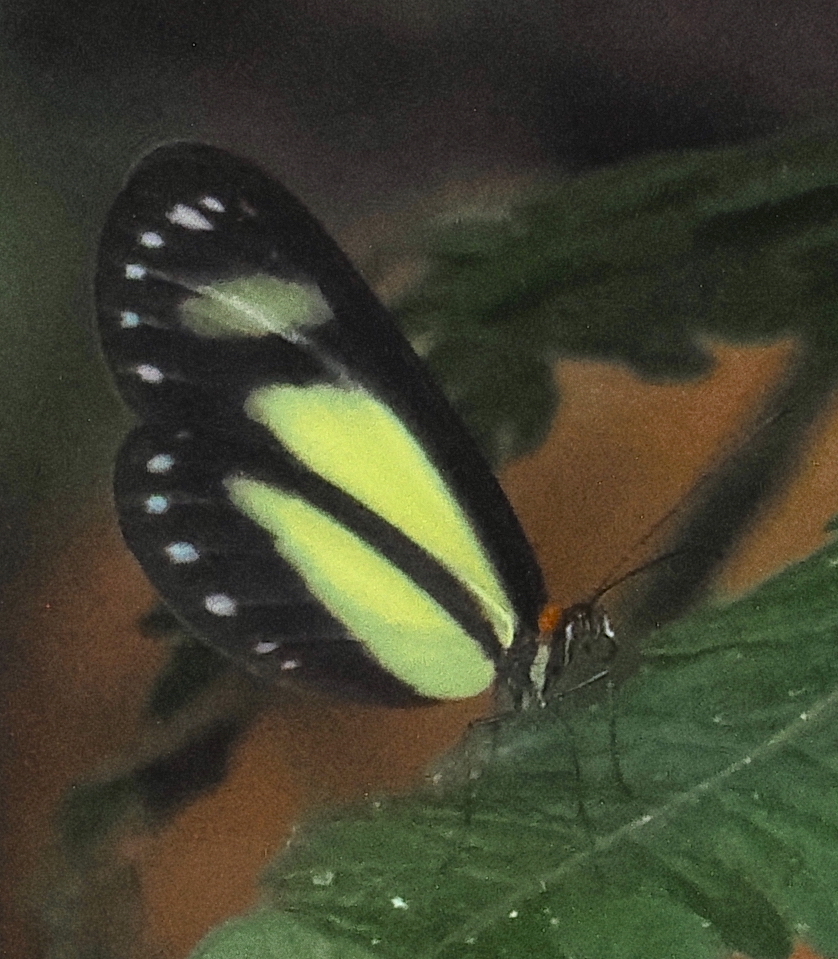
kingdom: Animalia
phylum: Arthropoda
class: Insecta
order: Lepidoptera
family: Nymphalidae
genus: Scada
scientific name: Scada zibia
